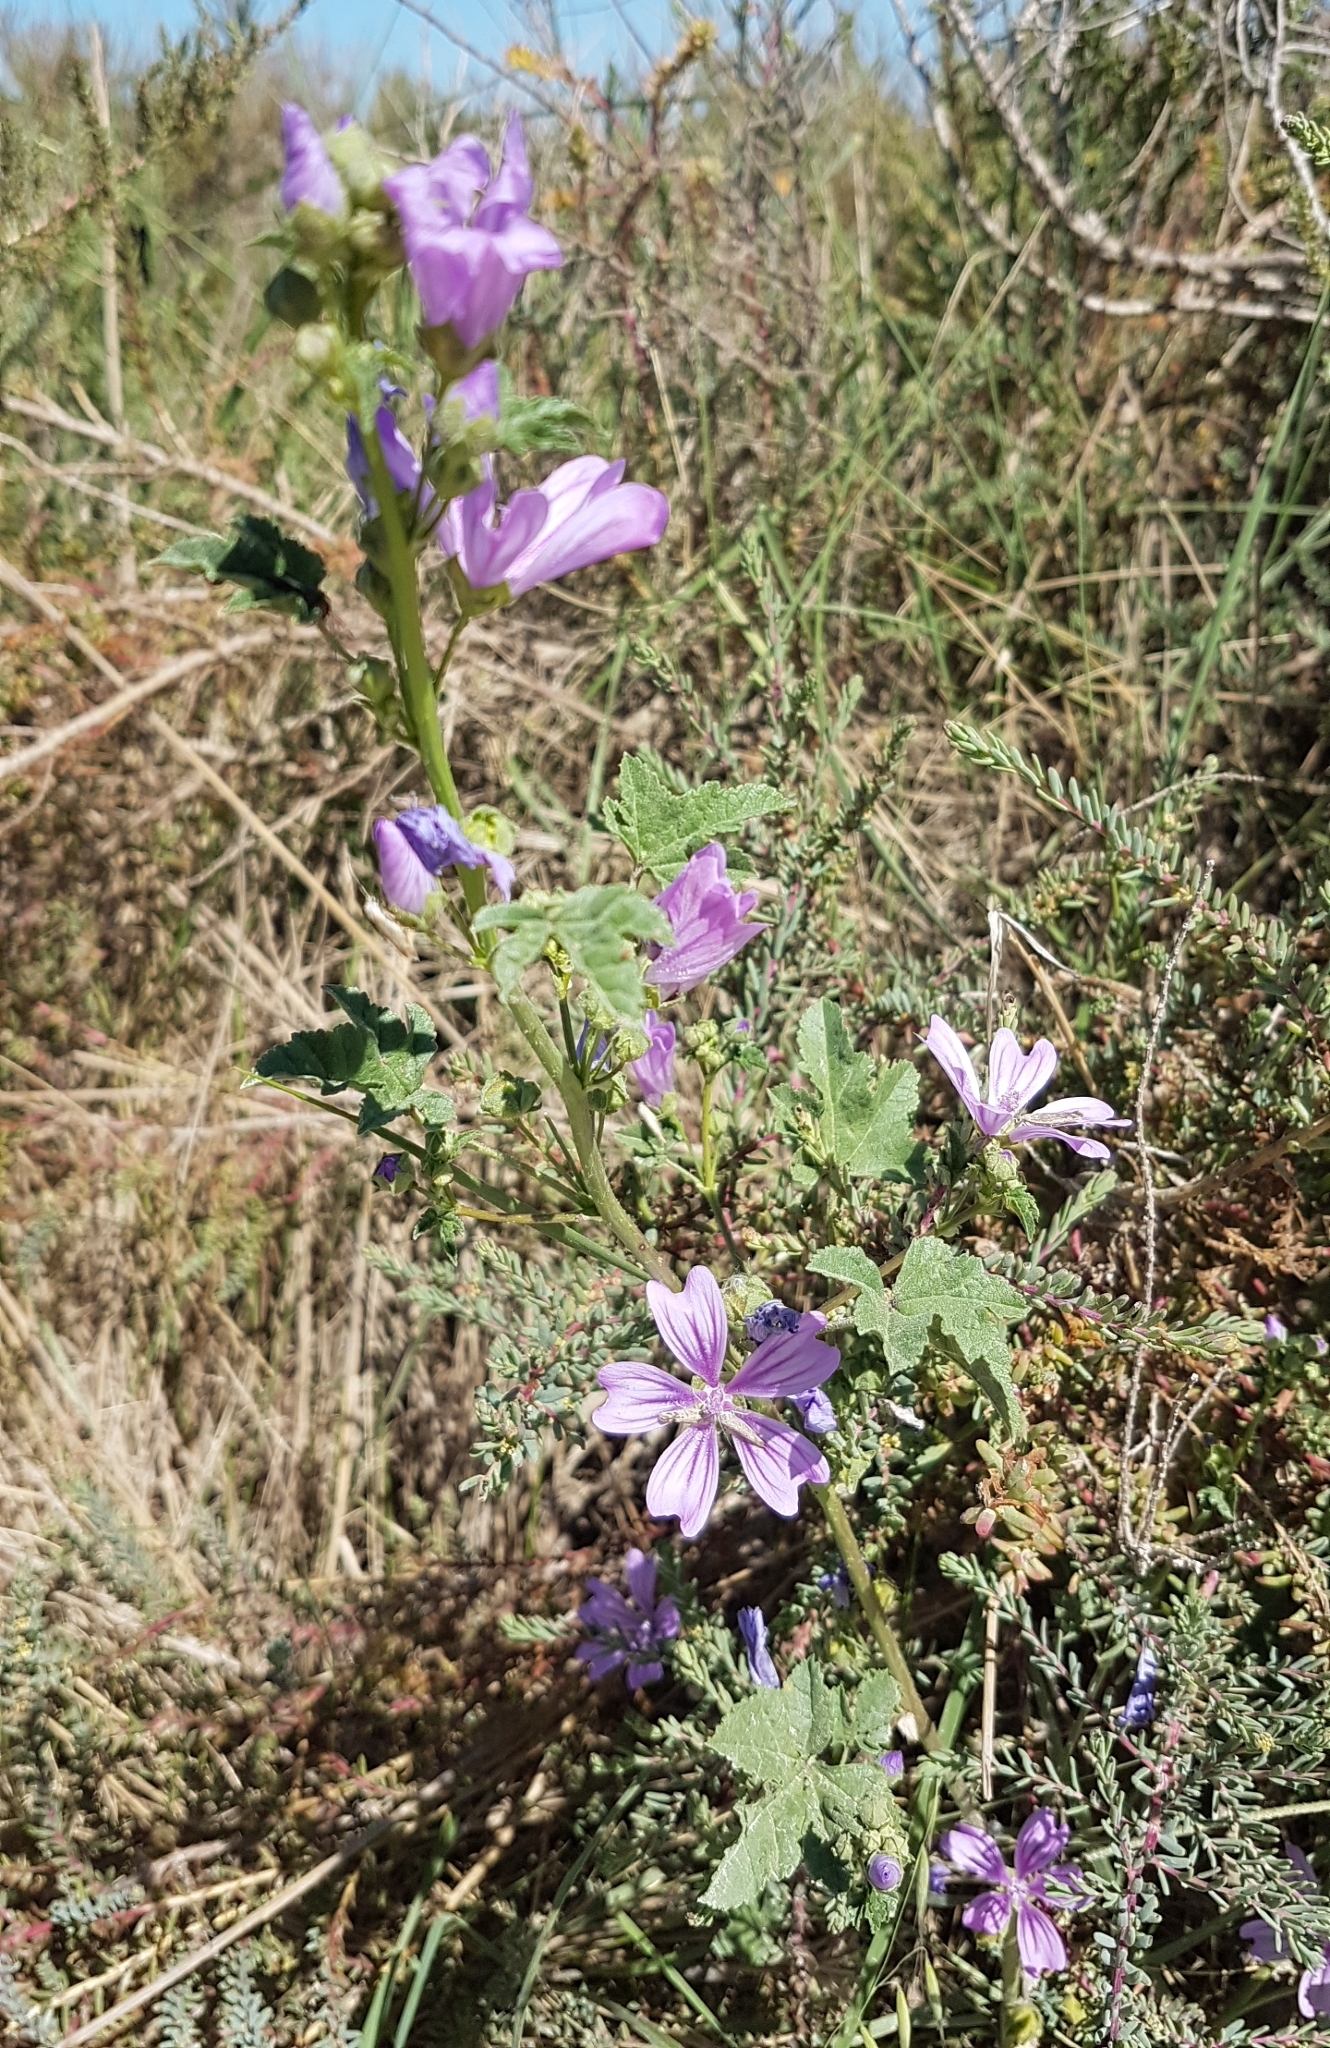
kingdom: Plantae
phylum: Tracheophyta
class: Magnoliopsida
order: Malvales
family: Malvaceae
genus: Malva
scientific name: Malva sylvestris
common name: Common mallow
